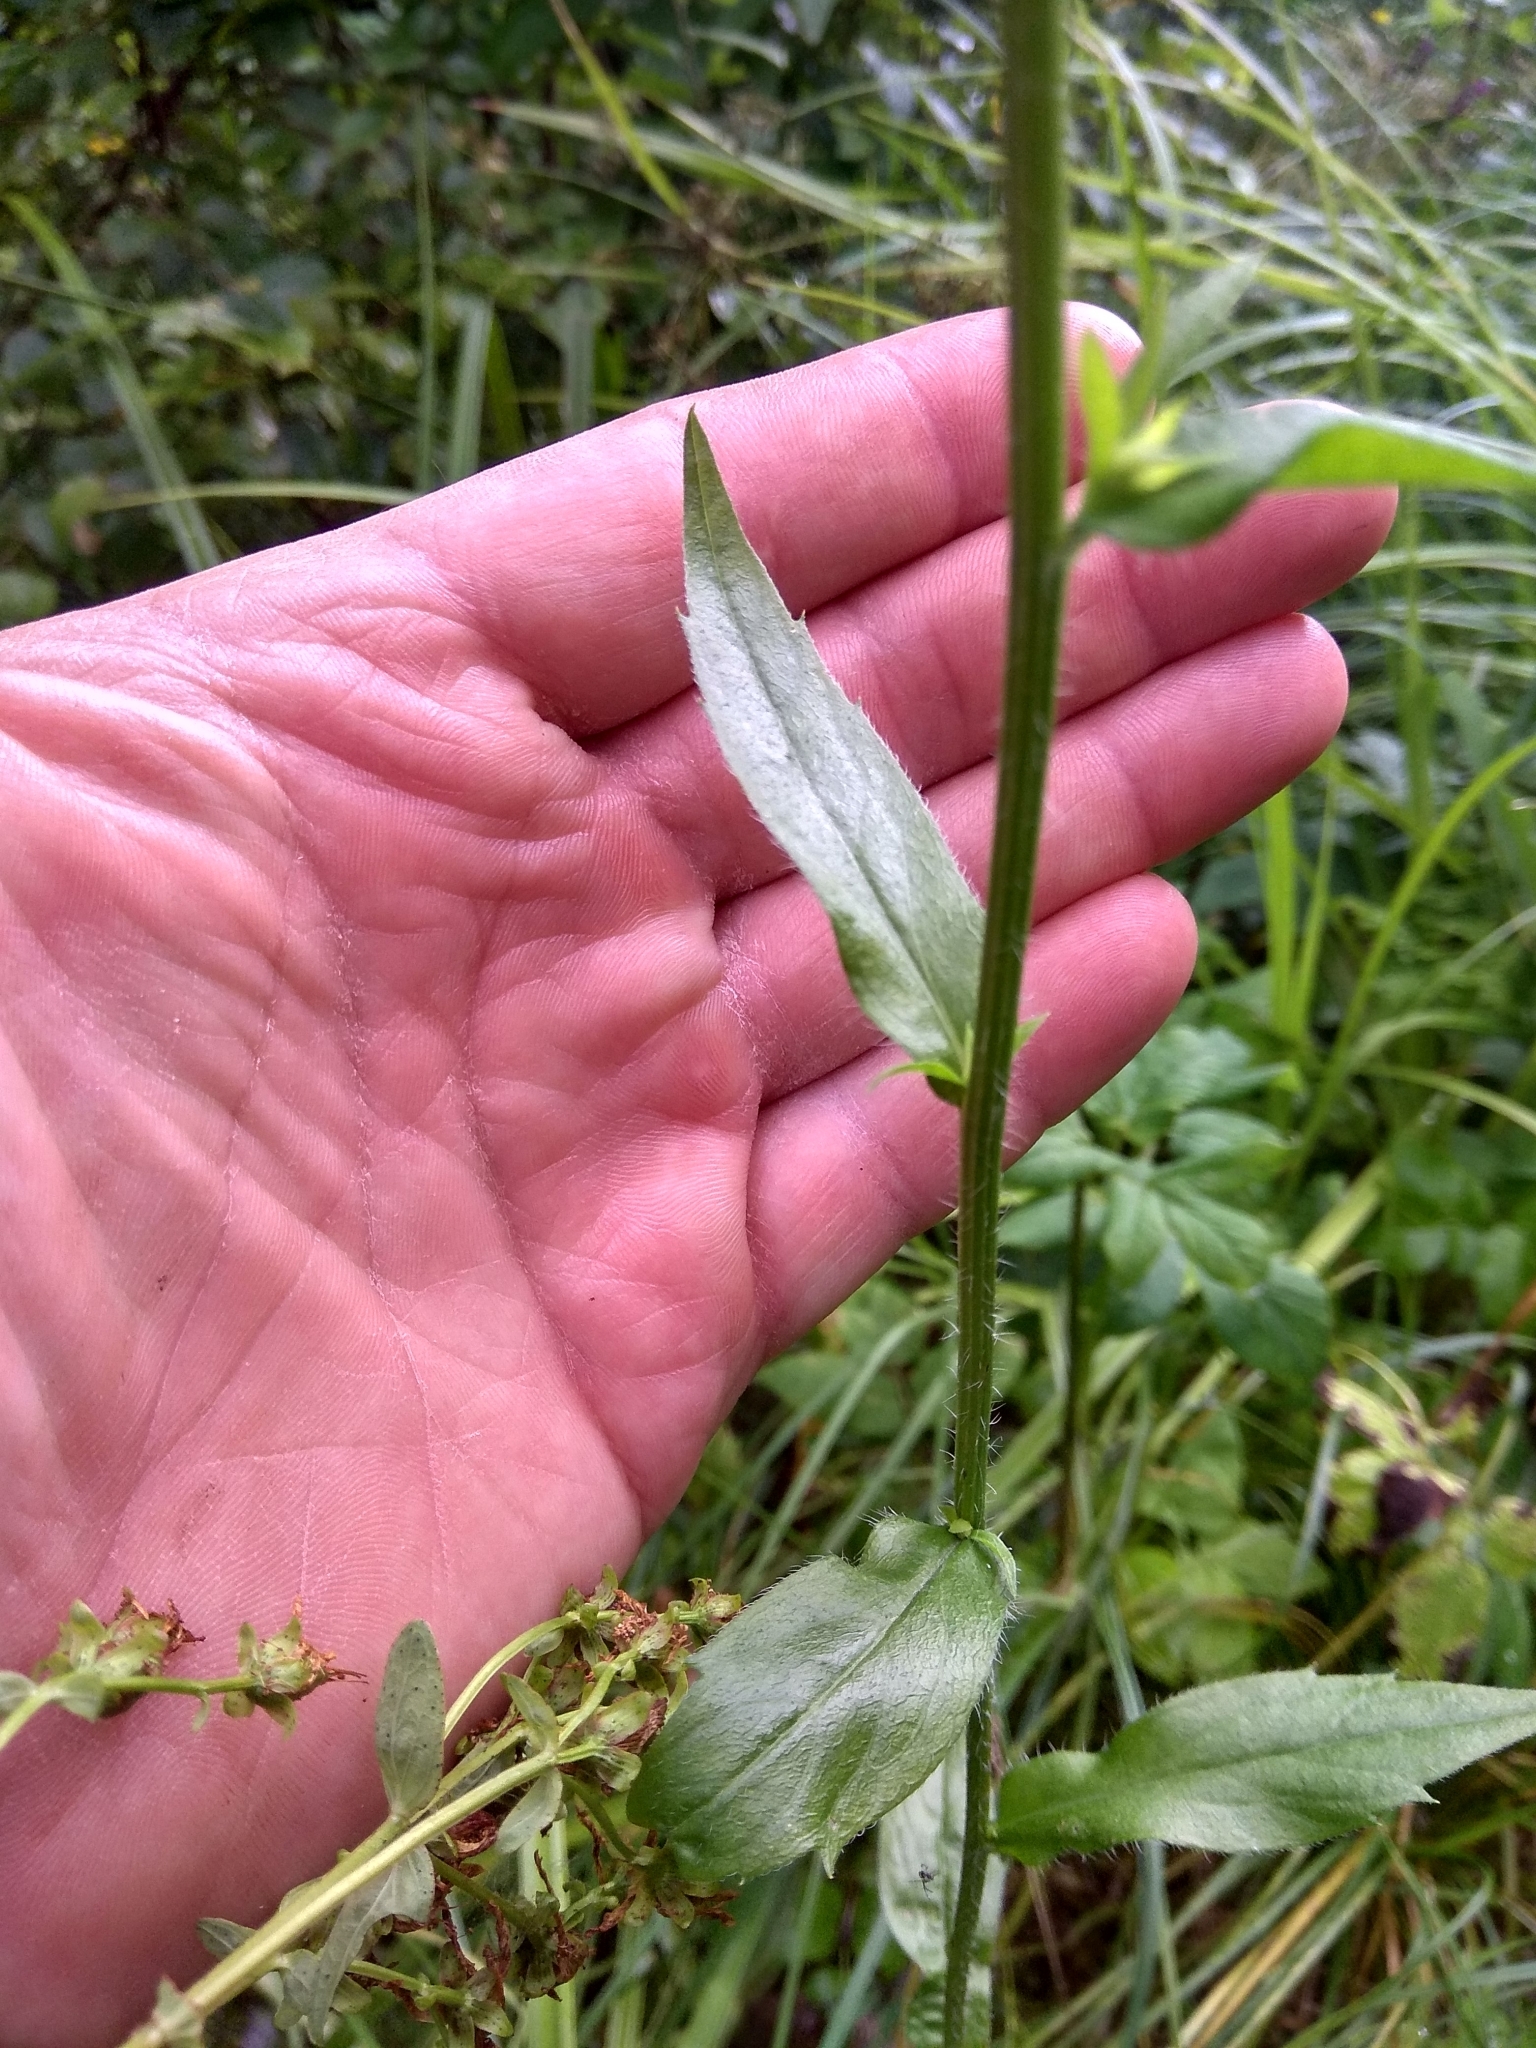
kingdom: Plantae
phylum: Tracheophyta
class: Magnoliopsida
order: Asterales
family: Asteraceae
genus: Erigeron
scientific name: Erigeron annuus
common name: Tall fleabane
